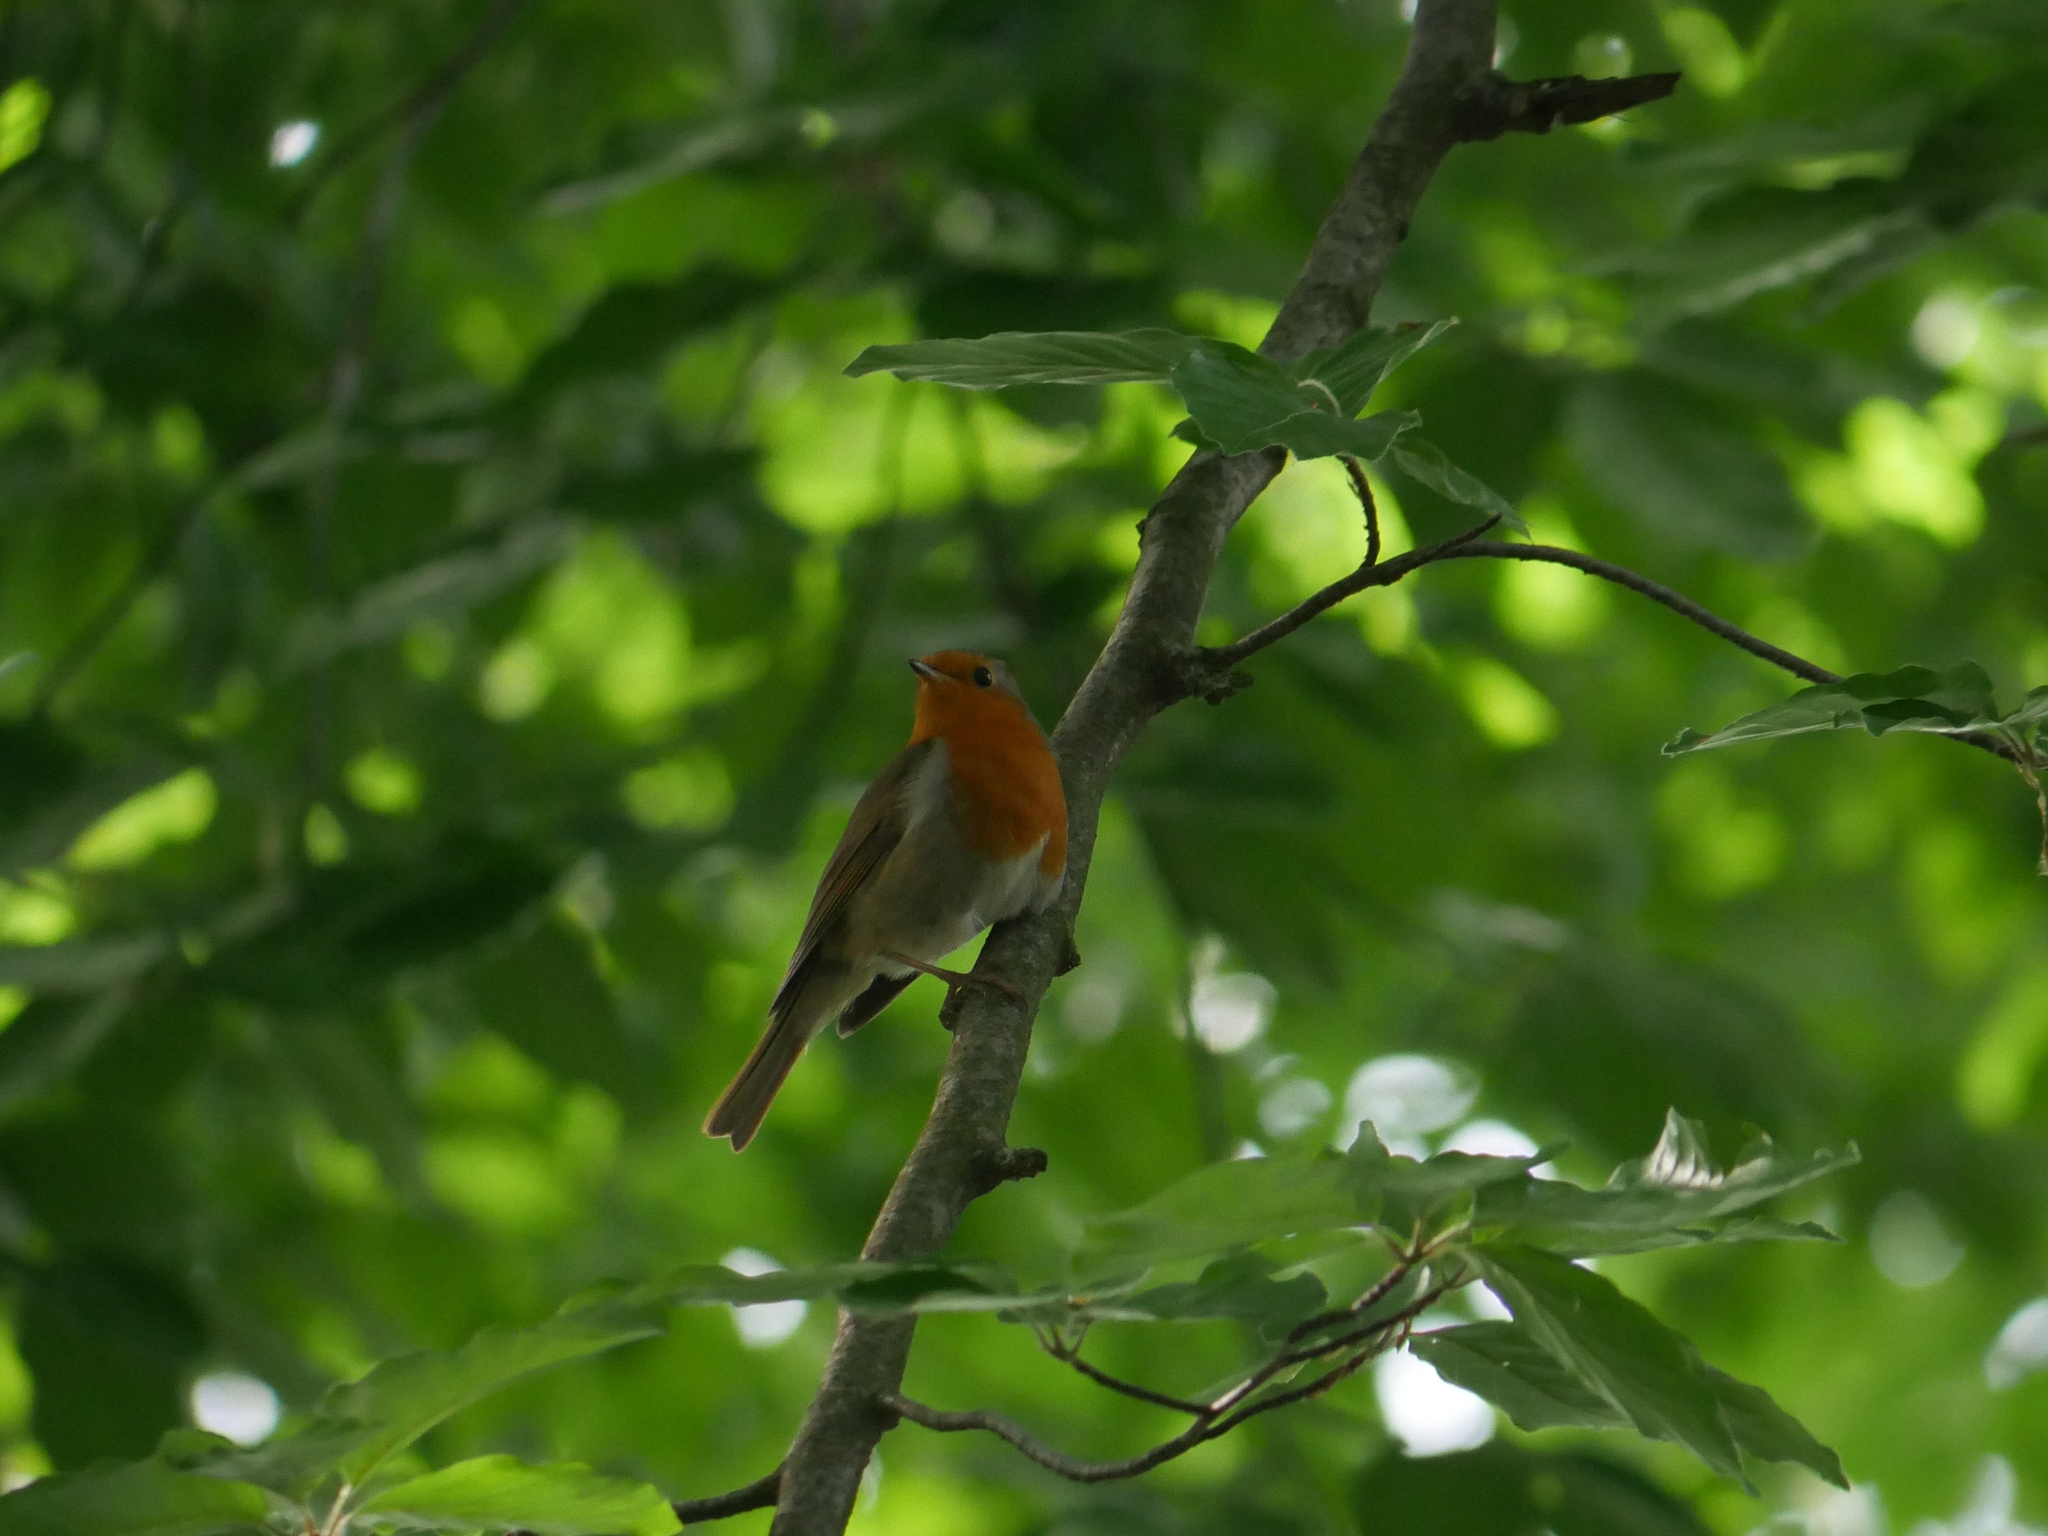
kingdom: Animalia
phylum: Chordata
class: Aves
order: Passeriformes
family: Muscicapidae
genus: Erithacus
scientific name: Erithacus rubecula
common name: European robin
